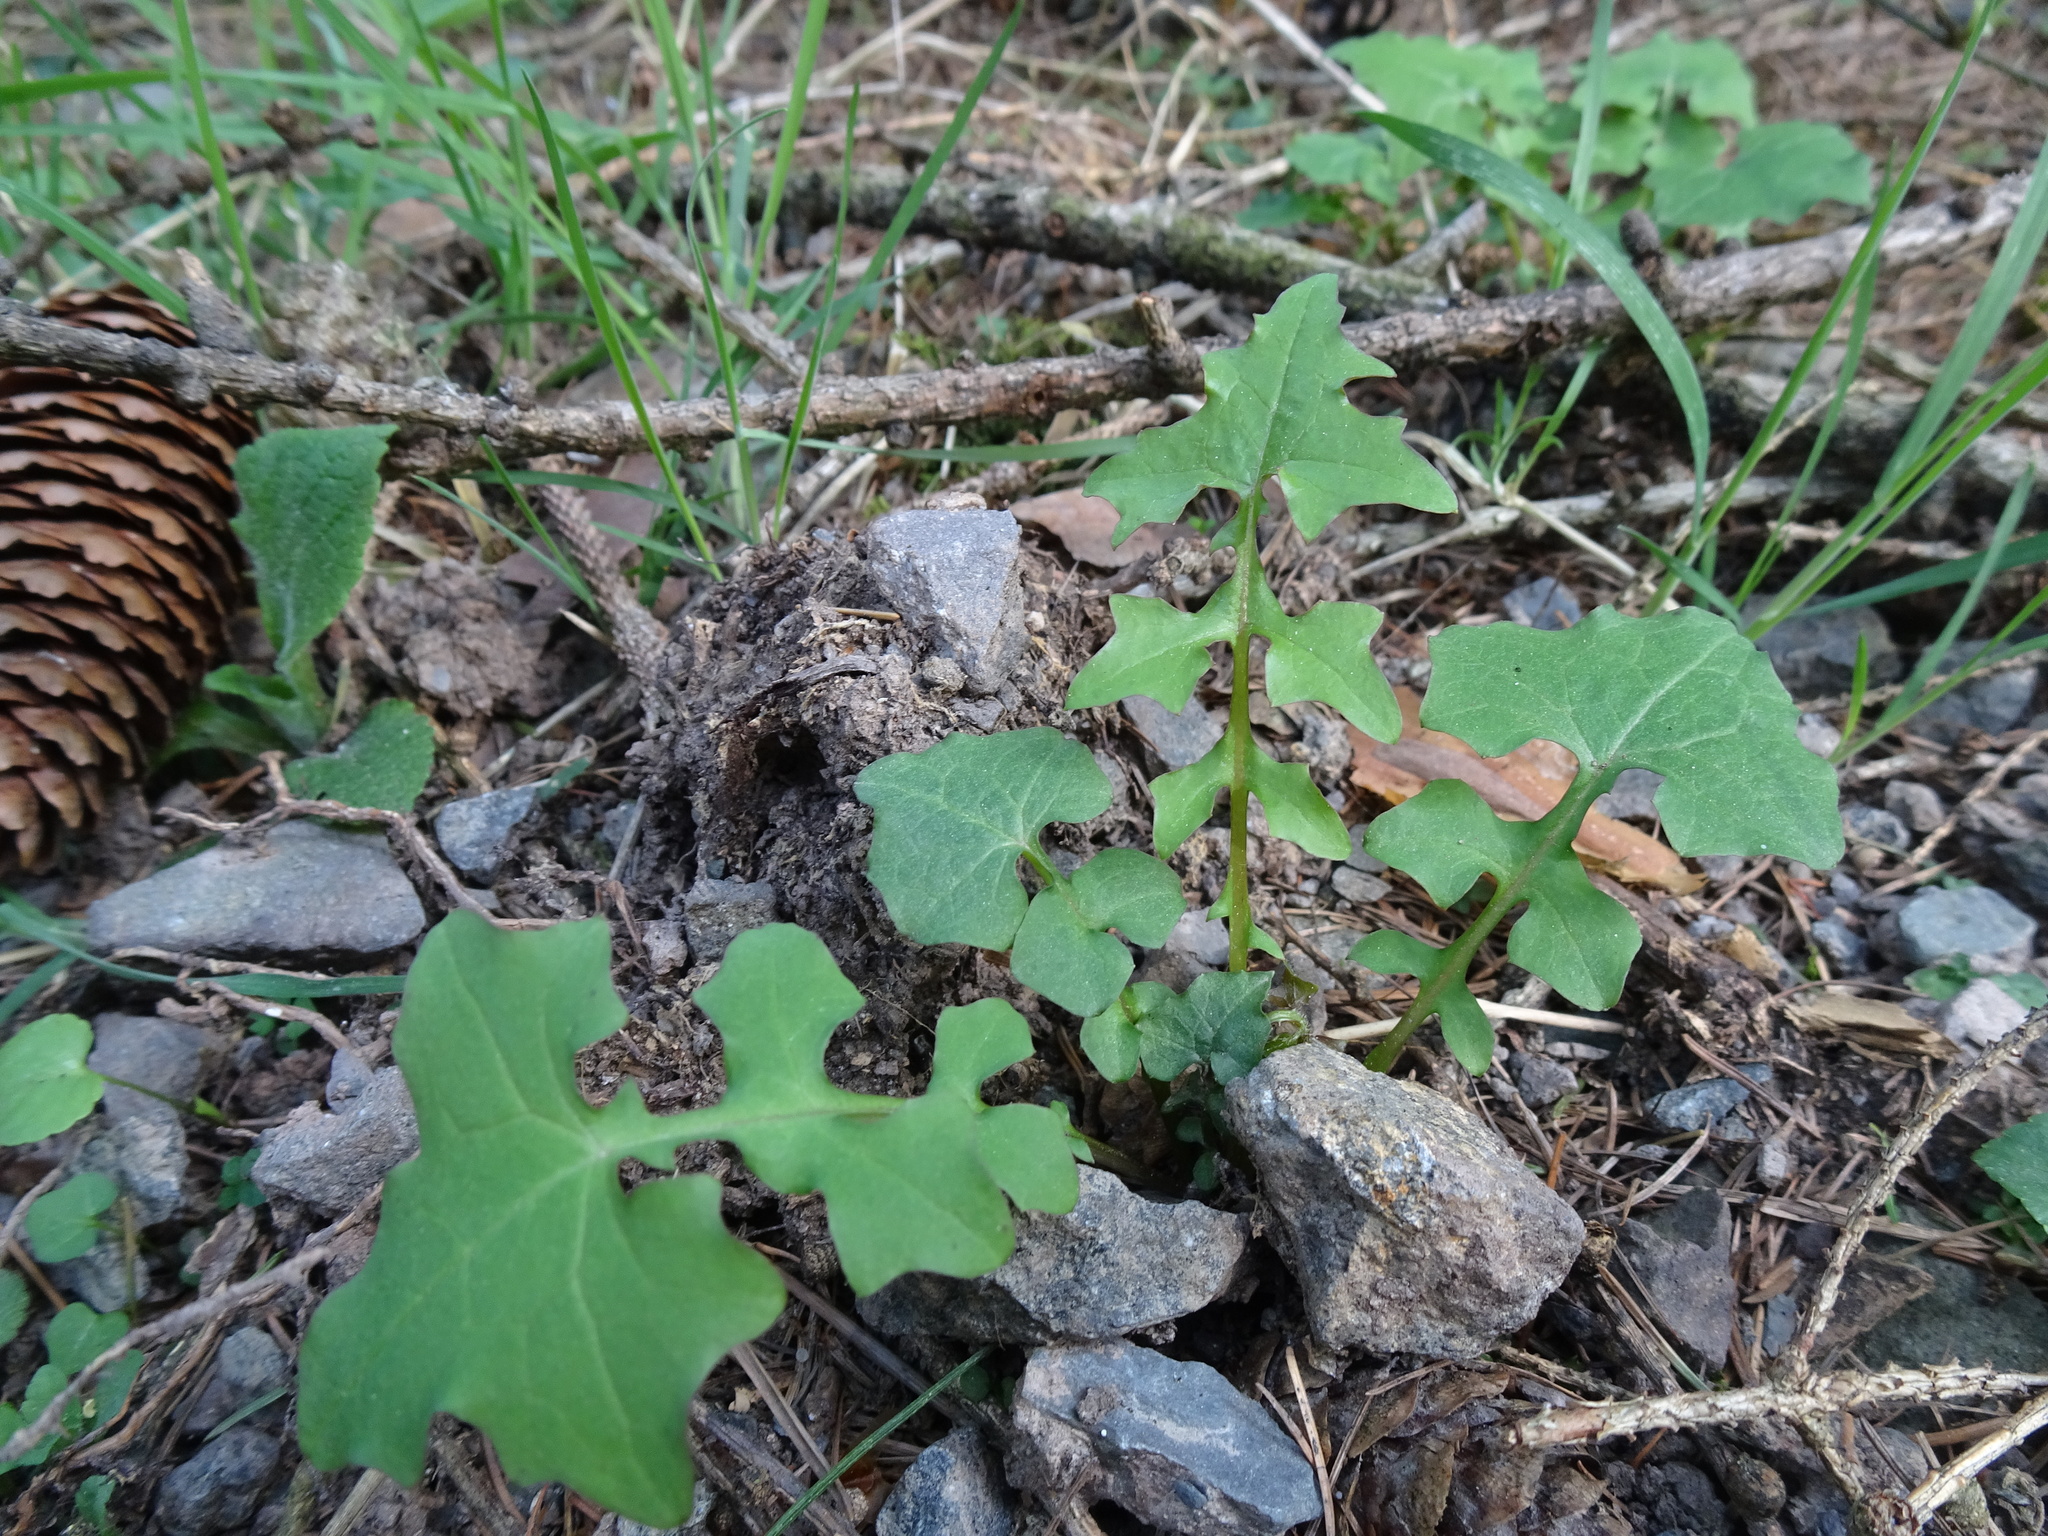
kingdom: Plantae
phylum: Tracheophyta
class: Magnoliopsida
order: Asterales
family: Asteraceae
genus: Mycelis
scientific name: Mycelis muralis
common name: Wall lettuce
